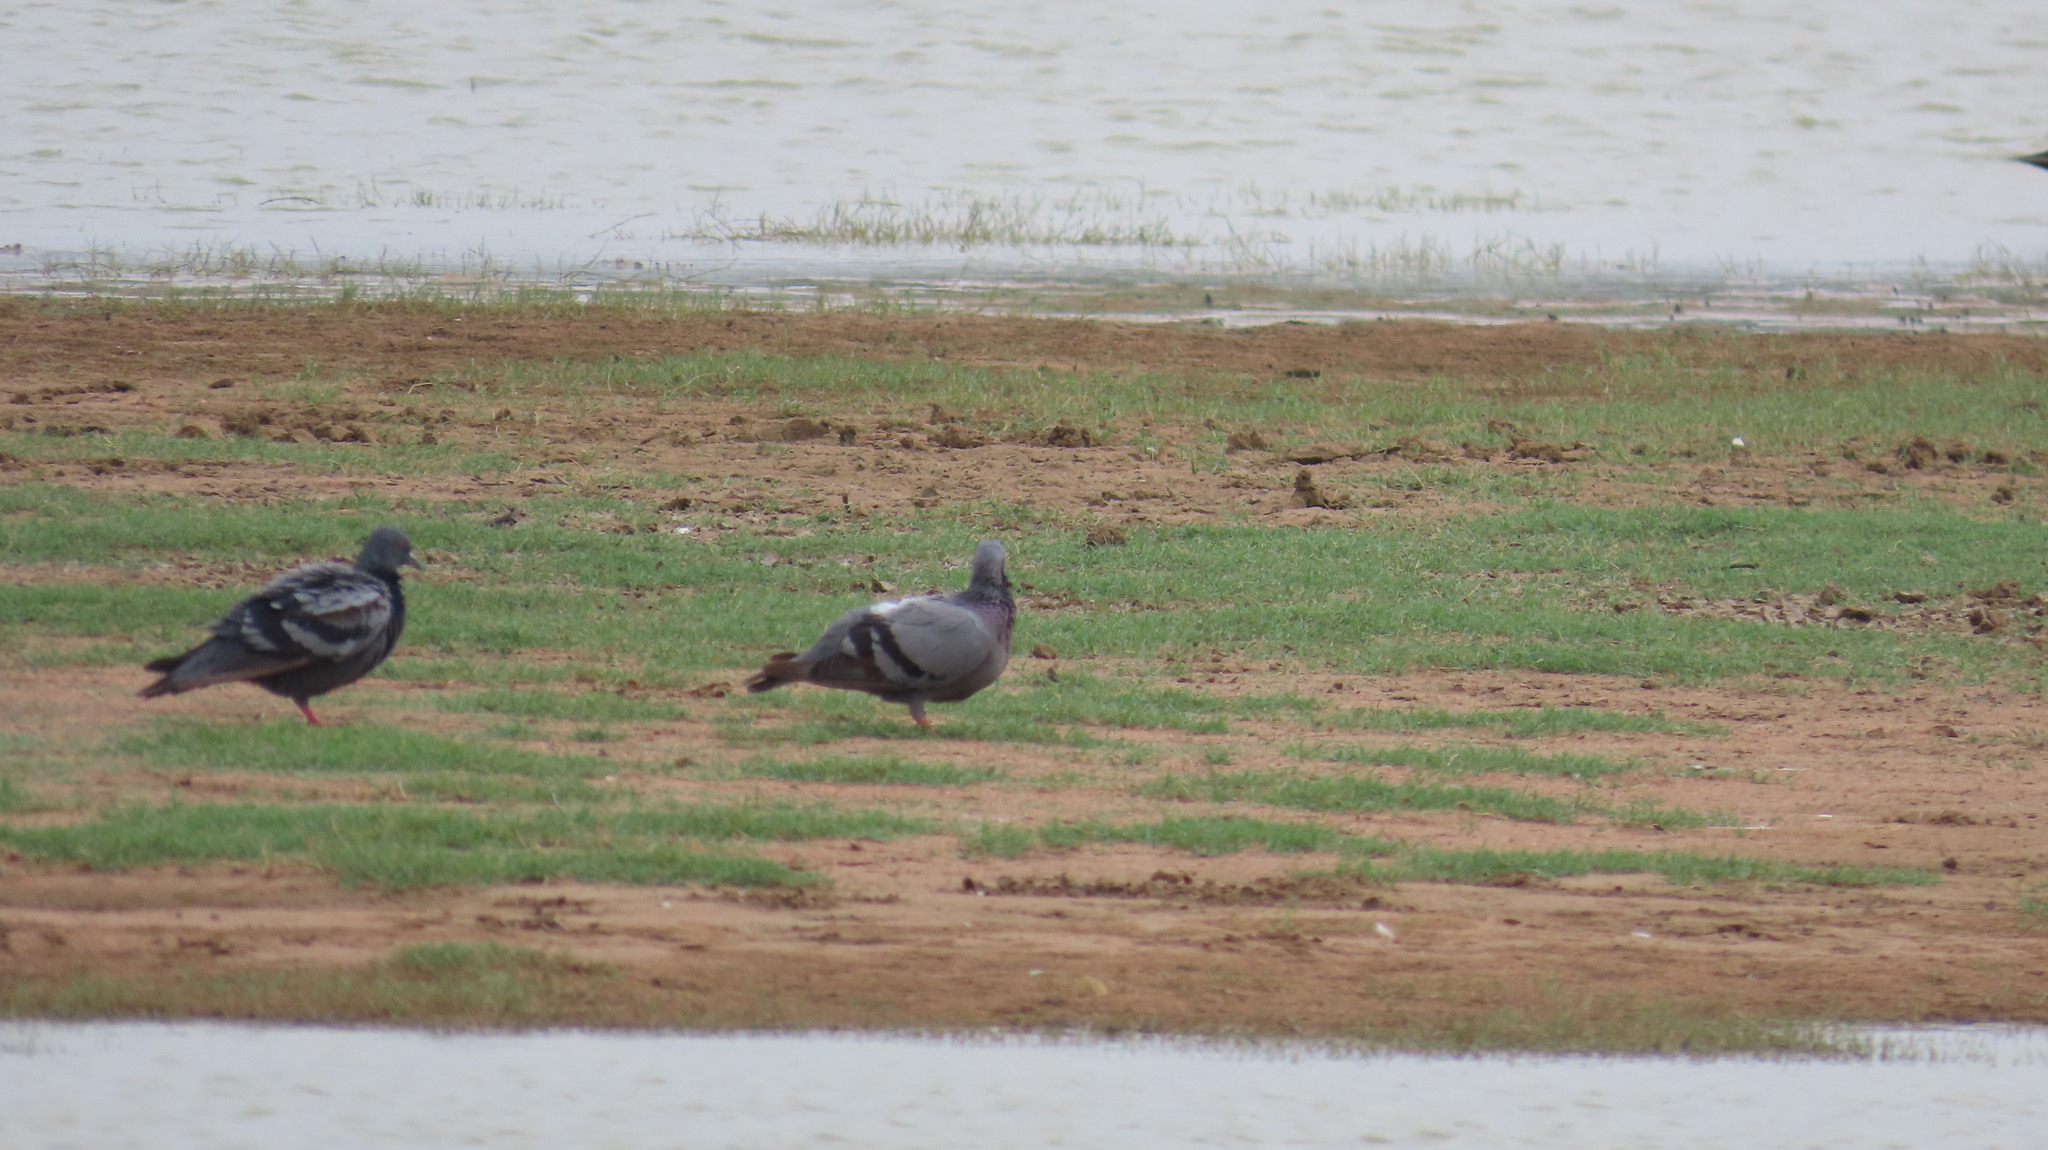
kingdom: Animalia
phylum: Chordata
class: Aves
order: Columbiformes
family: Columbidae
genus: Columba
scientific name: Columba livia
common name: Rock pigeon
